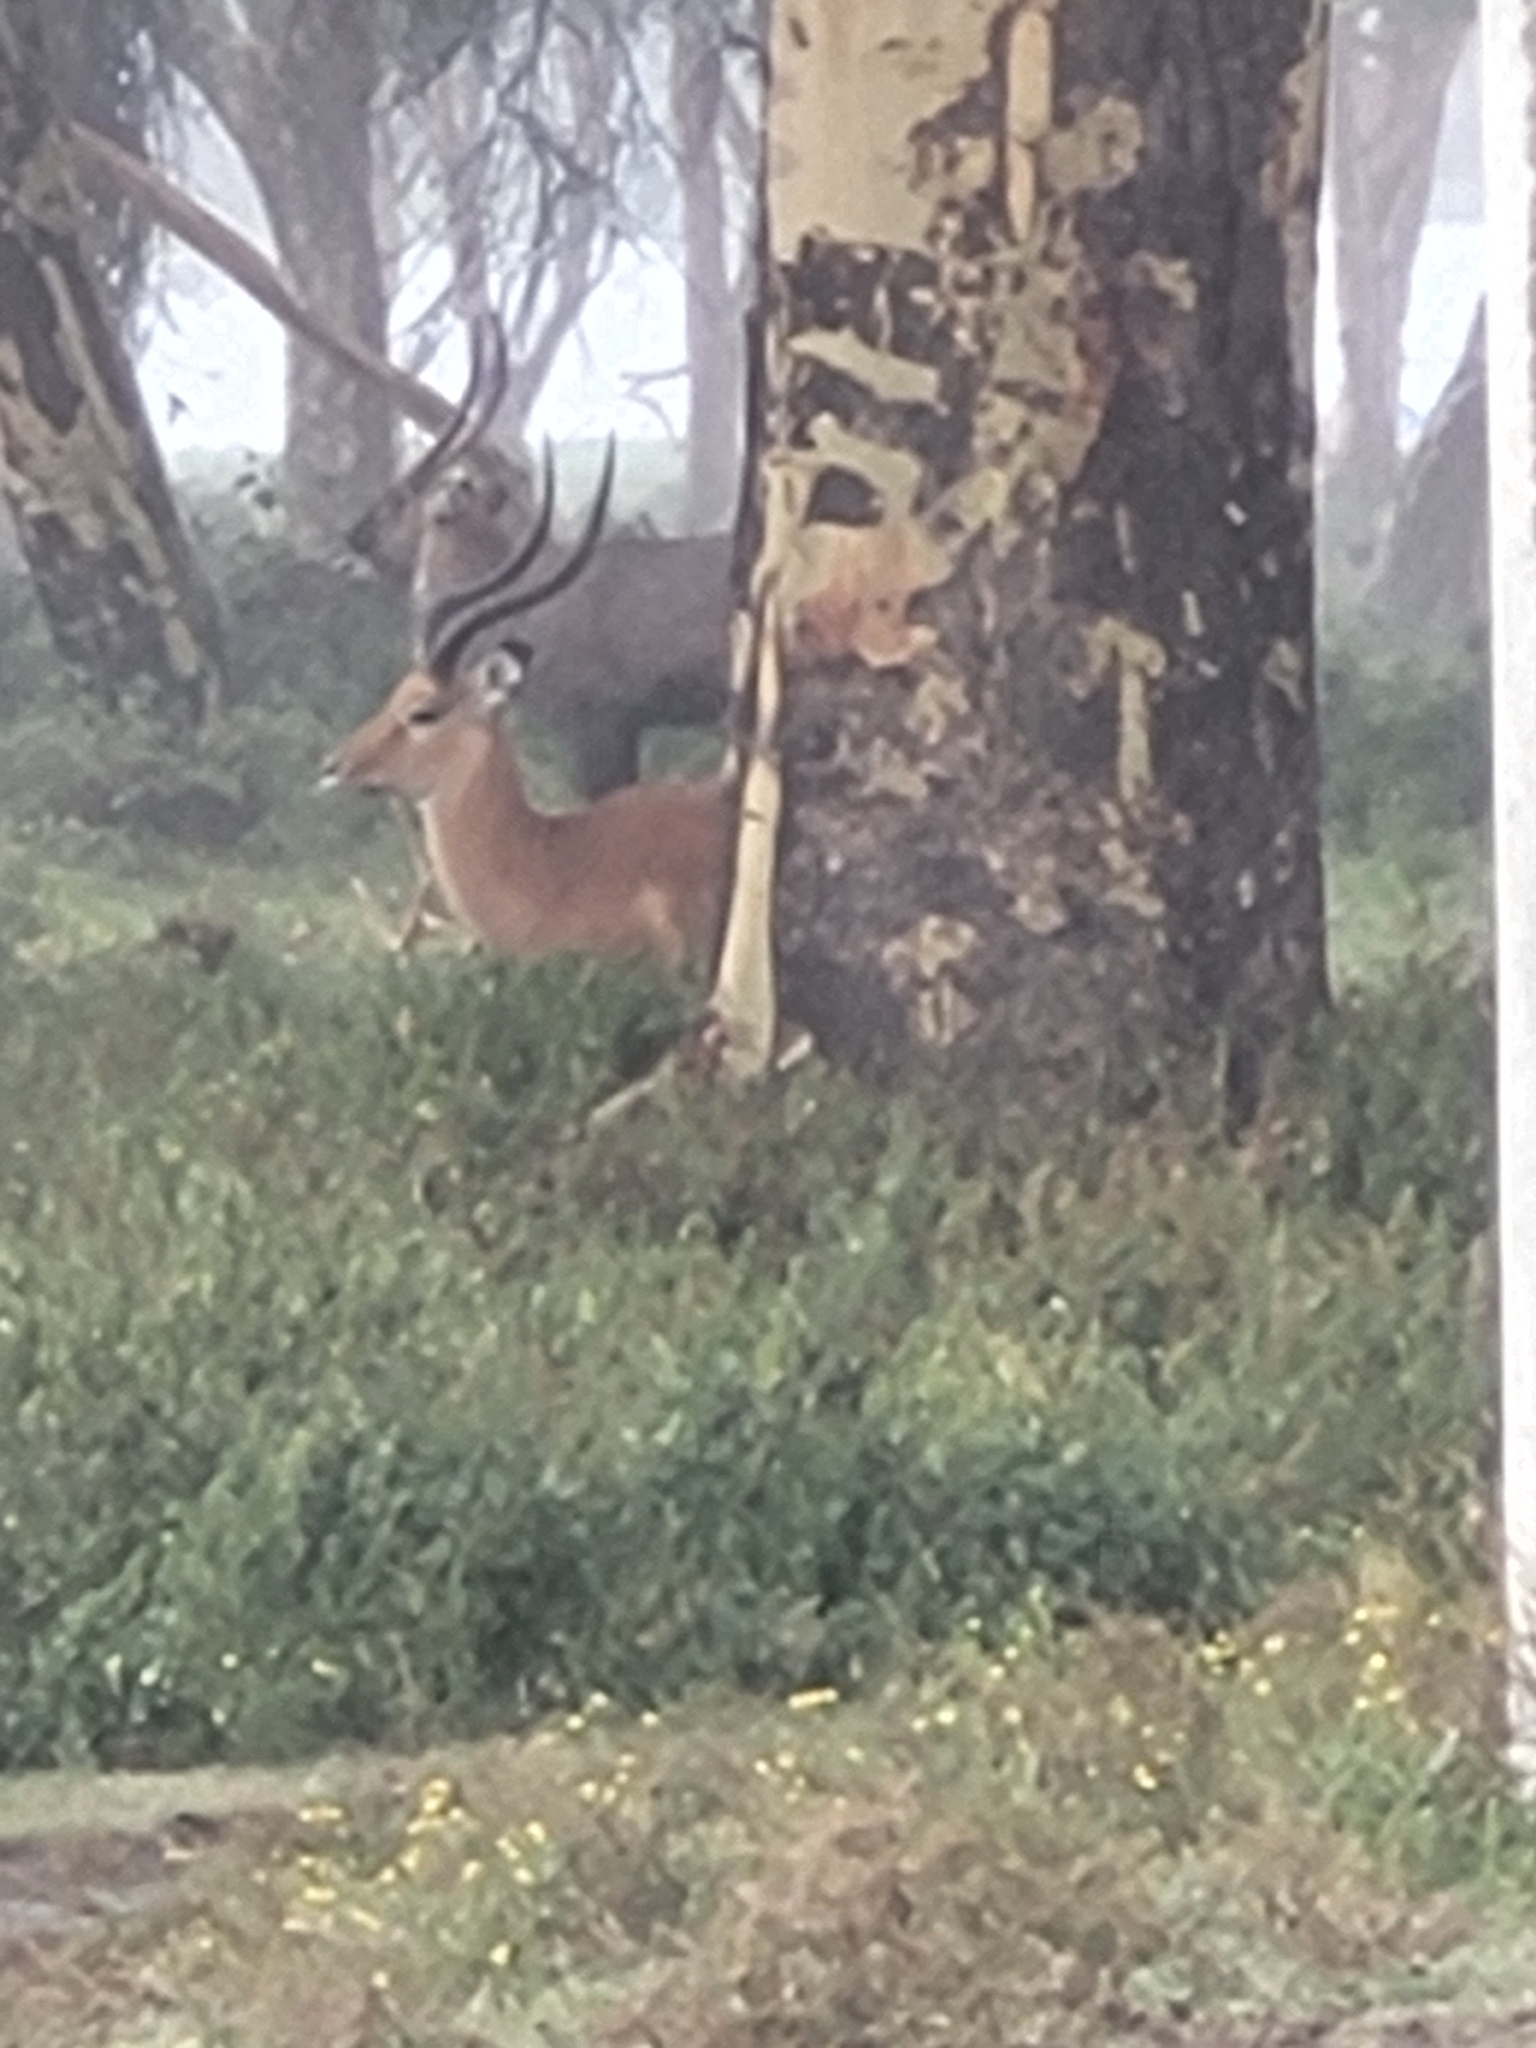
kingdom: Animalia
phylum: Chordata
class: Mammalia
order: Artiodactyla
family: Bovidae
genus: Aepyceros
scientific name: Aepyceros melampus
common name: Impala
